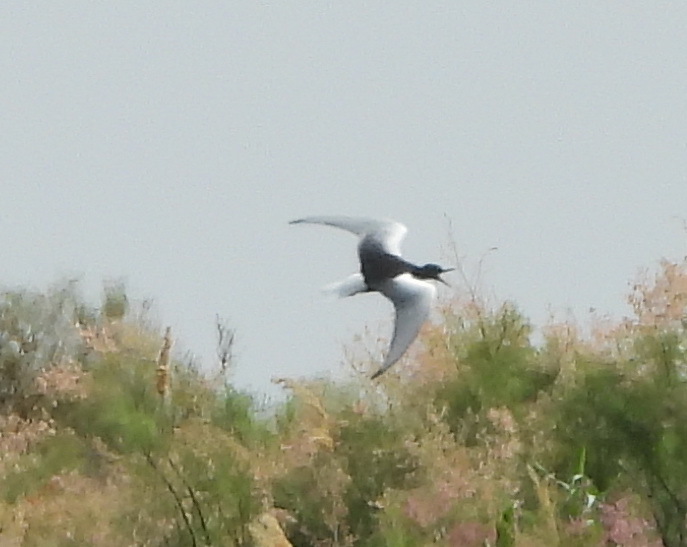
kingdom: Animalia
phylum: Chordata
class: Aves
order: Charadriiformes
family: Laridae
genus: Chlidonias
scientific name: Chlidonias leucopterus
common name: White-winged tern
